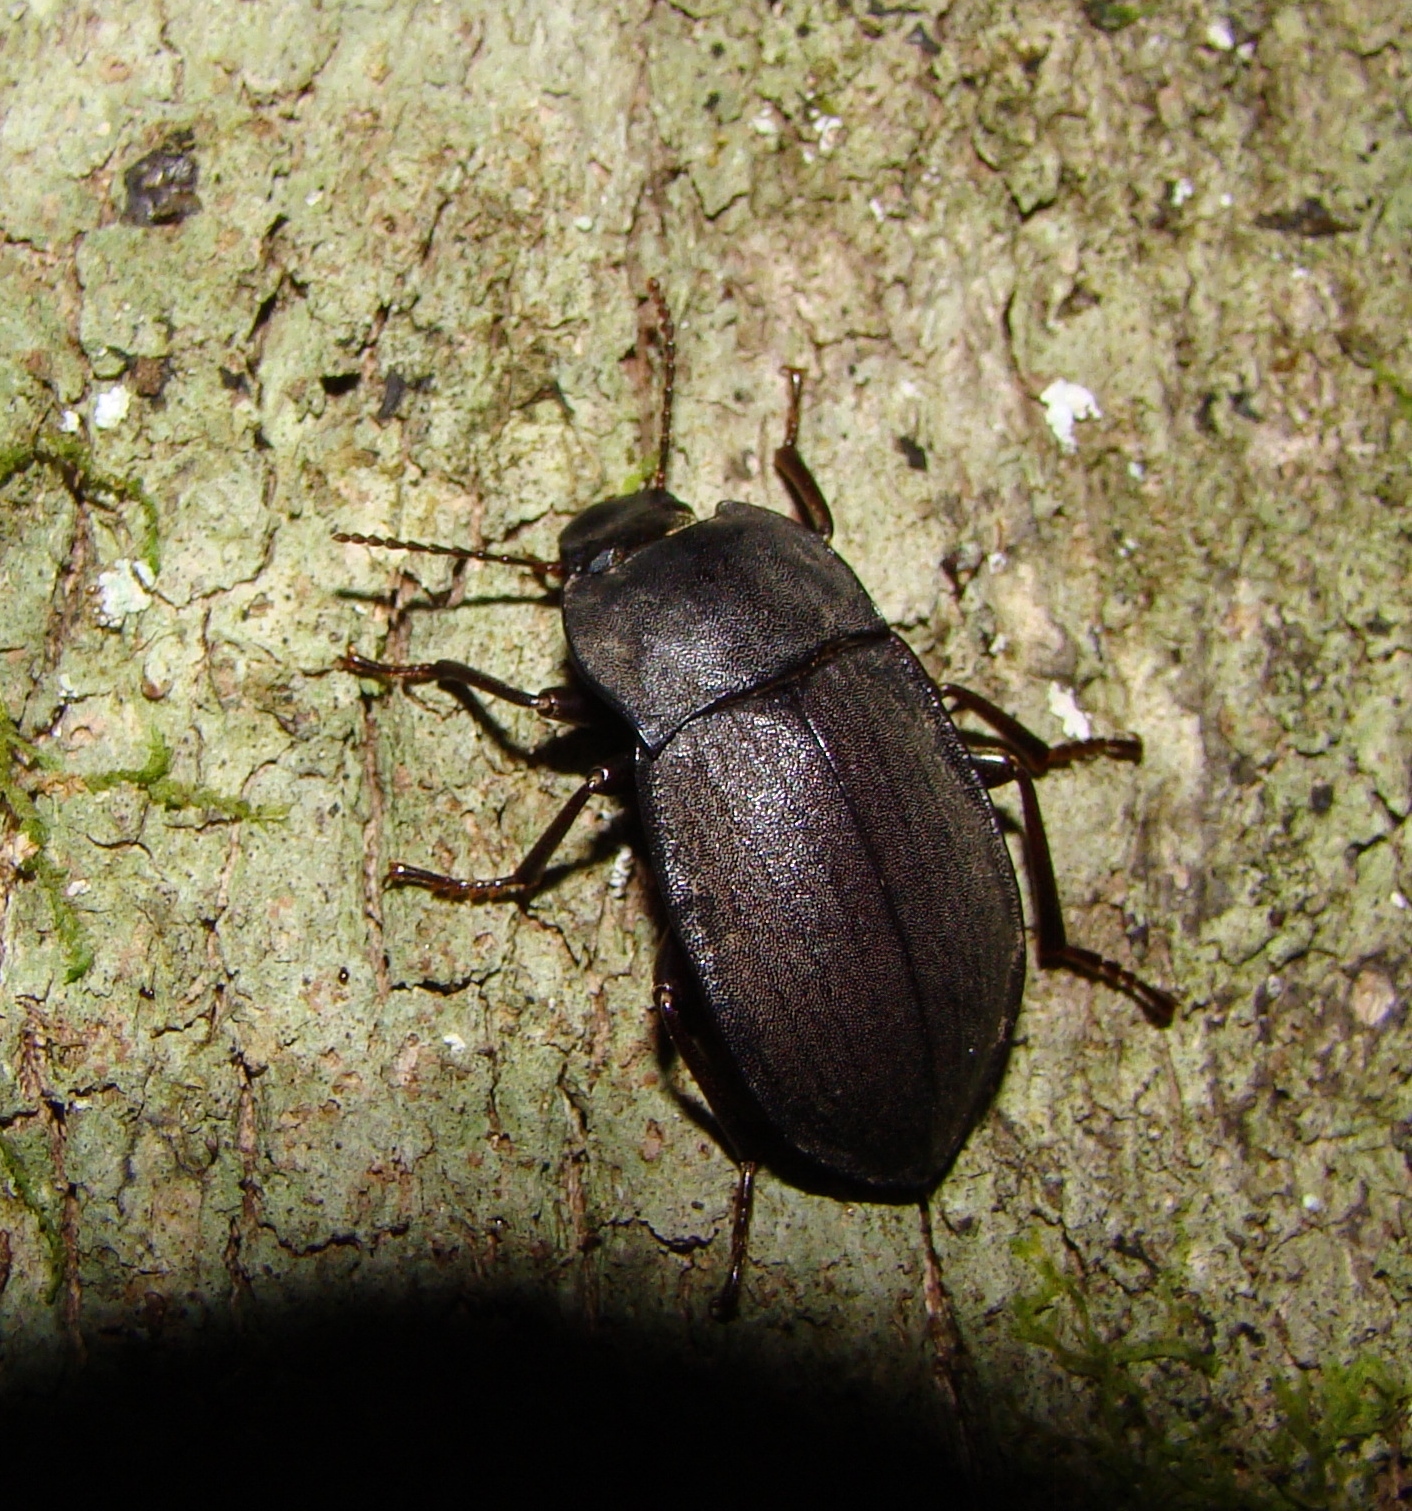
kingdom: Animalia
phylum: Arthropoda
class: Insecta
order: Coleoptera
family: Tenebrionidae
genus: Mimopeus
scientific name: Mimopeus
